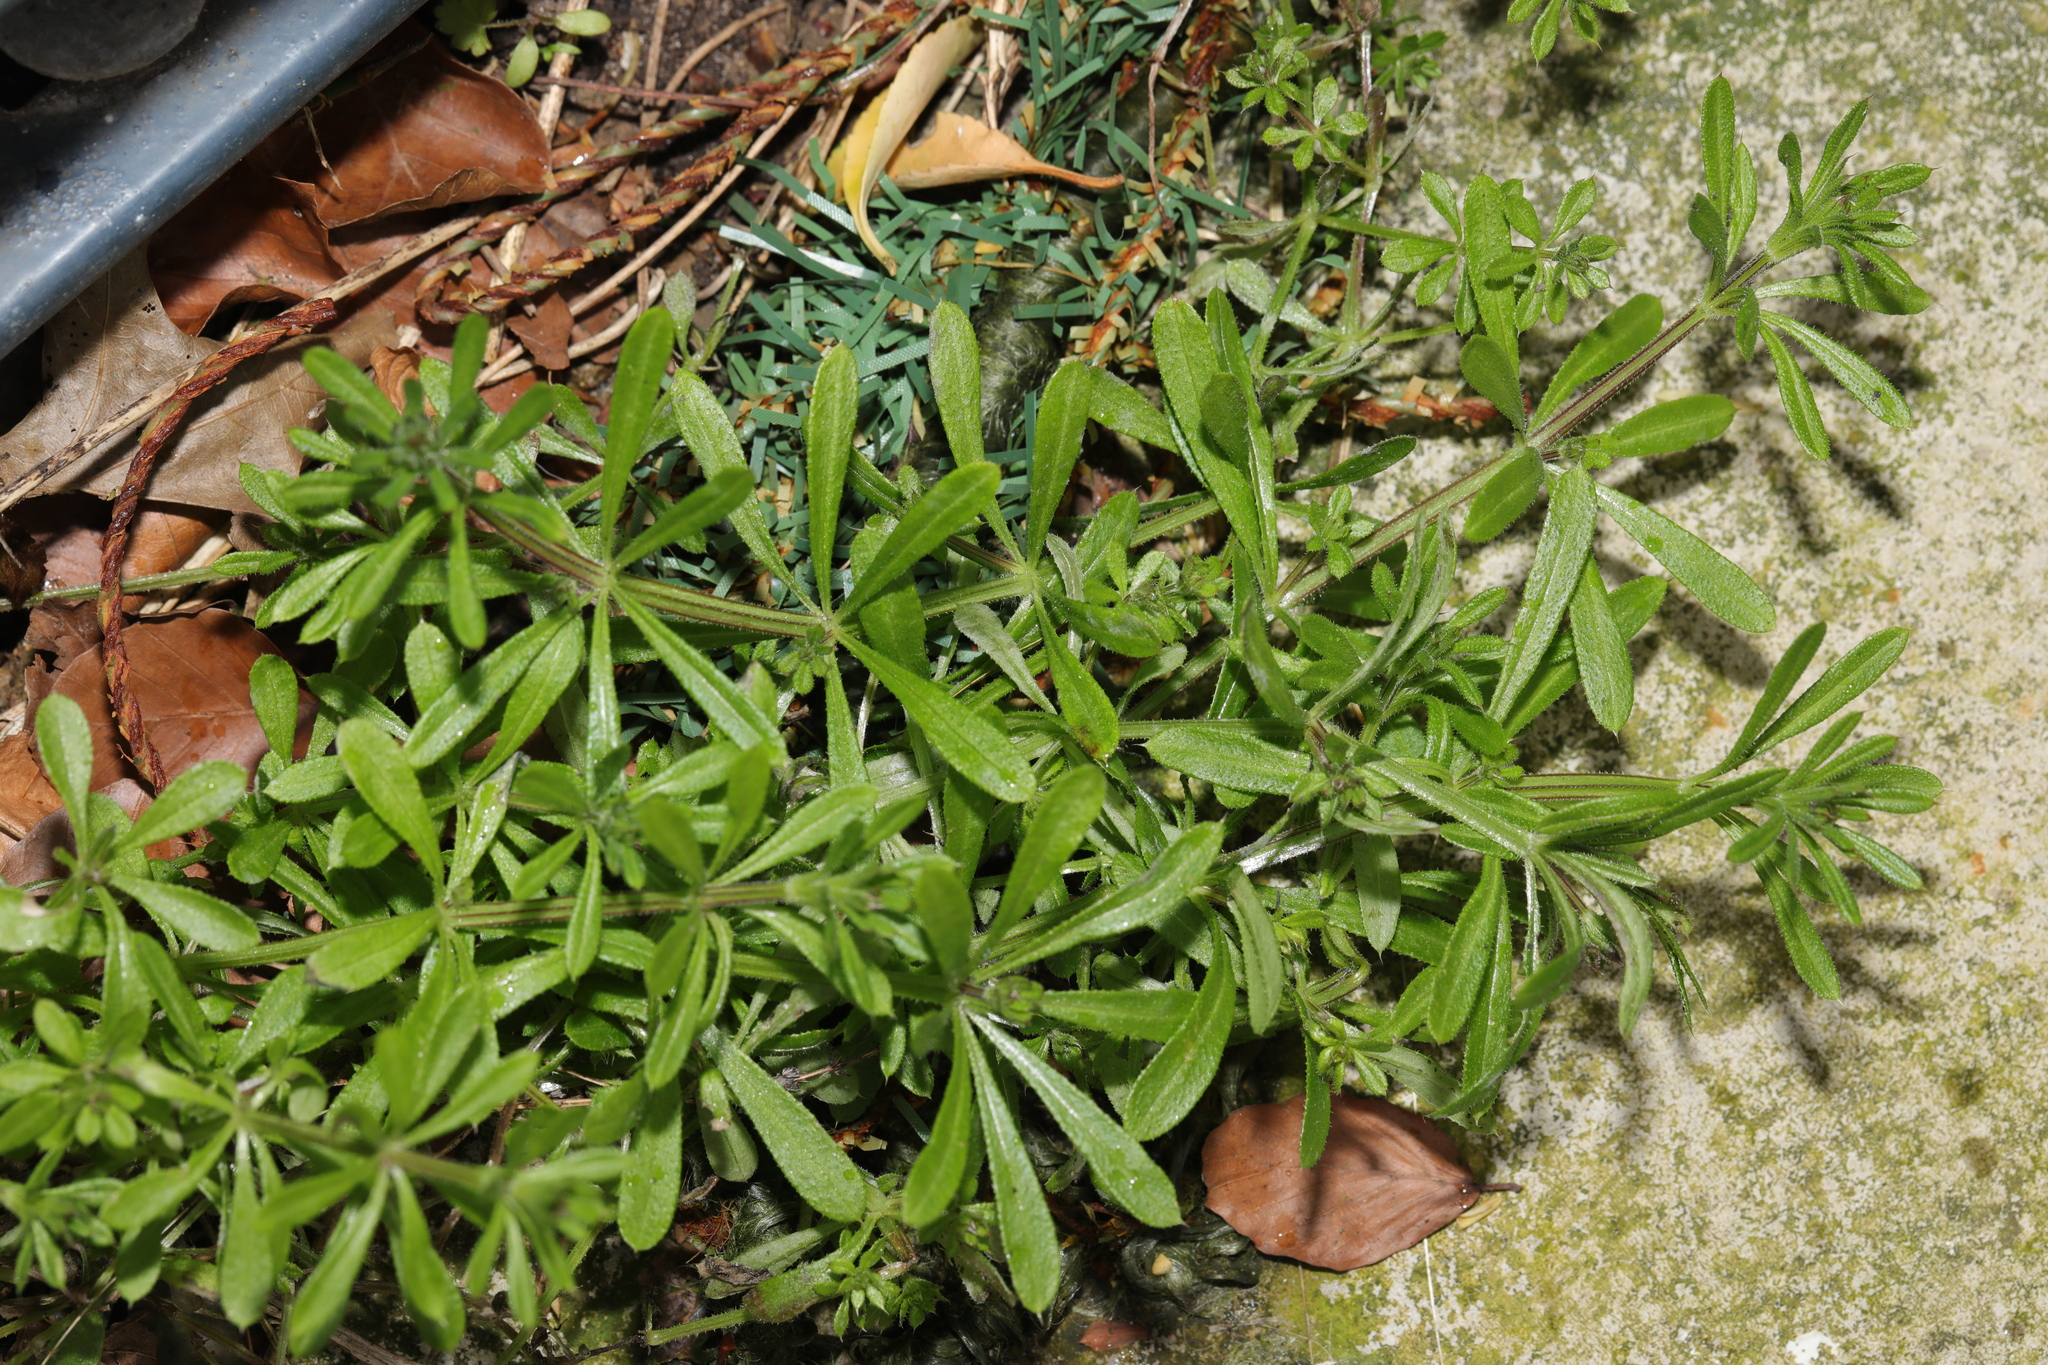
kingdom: Plantae
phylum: Tracheophyta
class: Magnoliopsida
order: Gentianales
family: Rubiaceae
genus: Galium
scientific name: Galium aparine
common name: Cleavers
